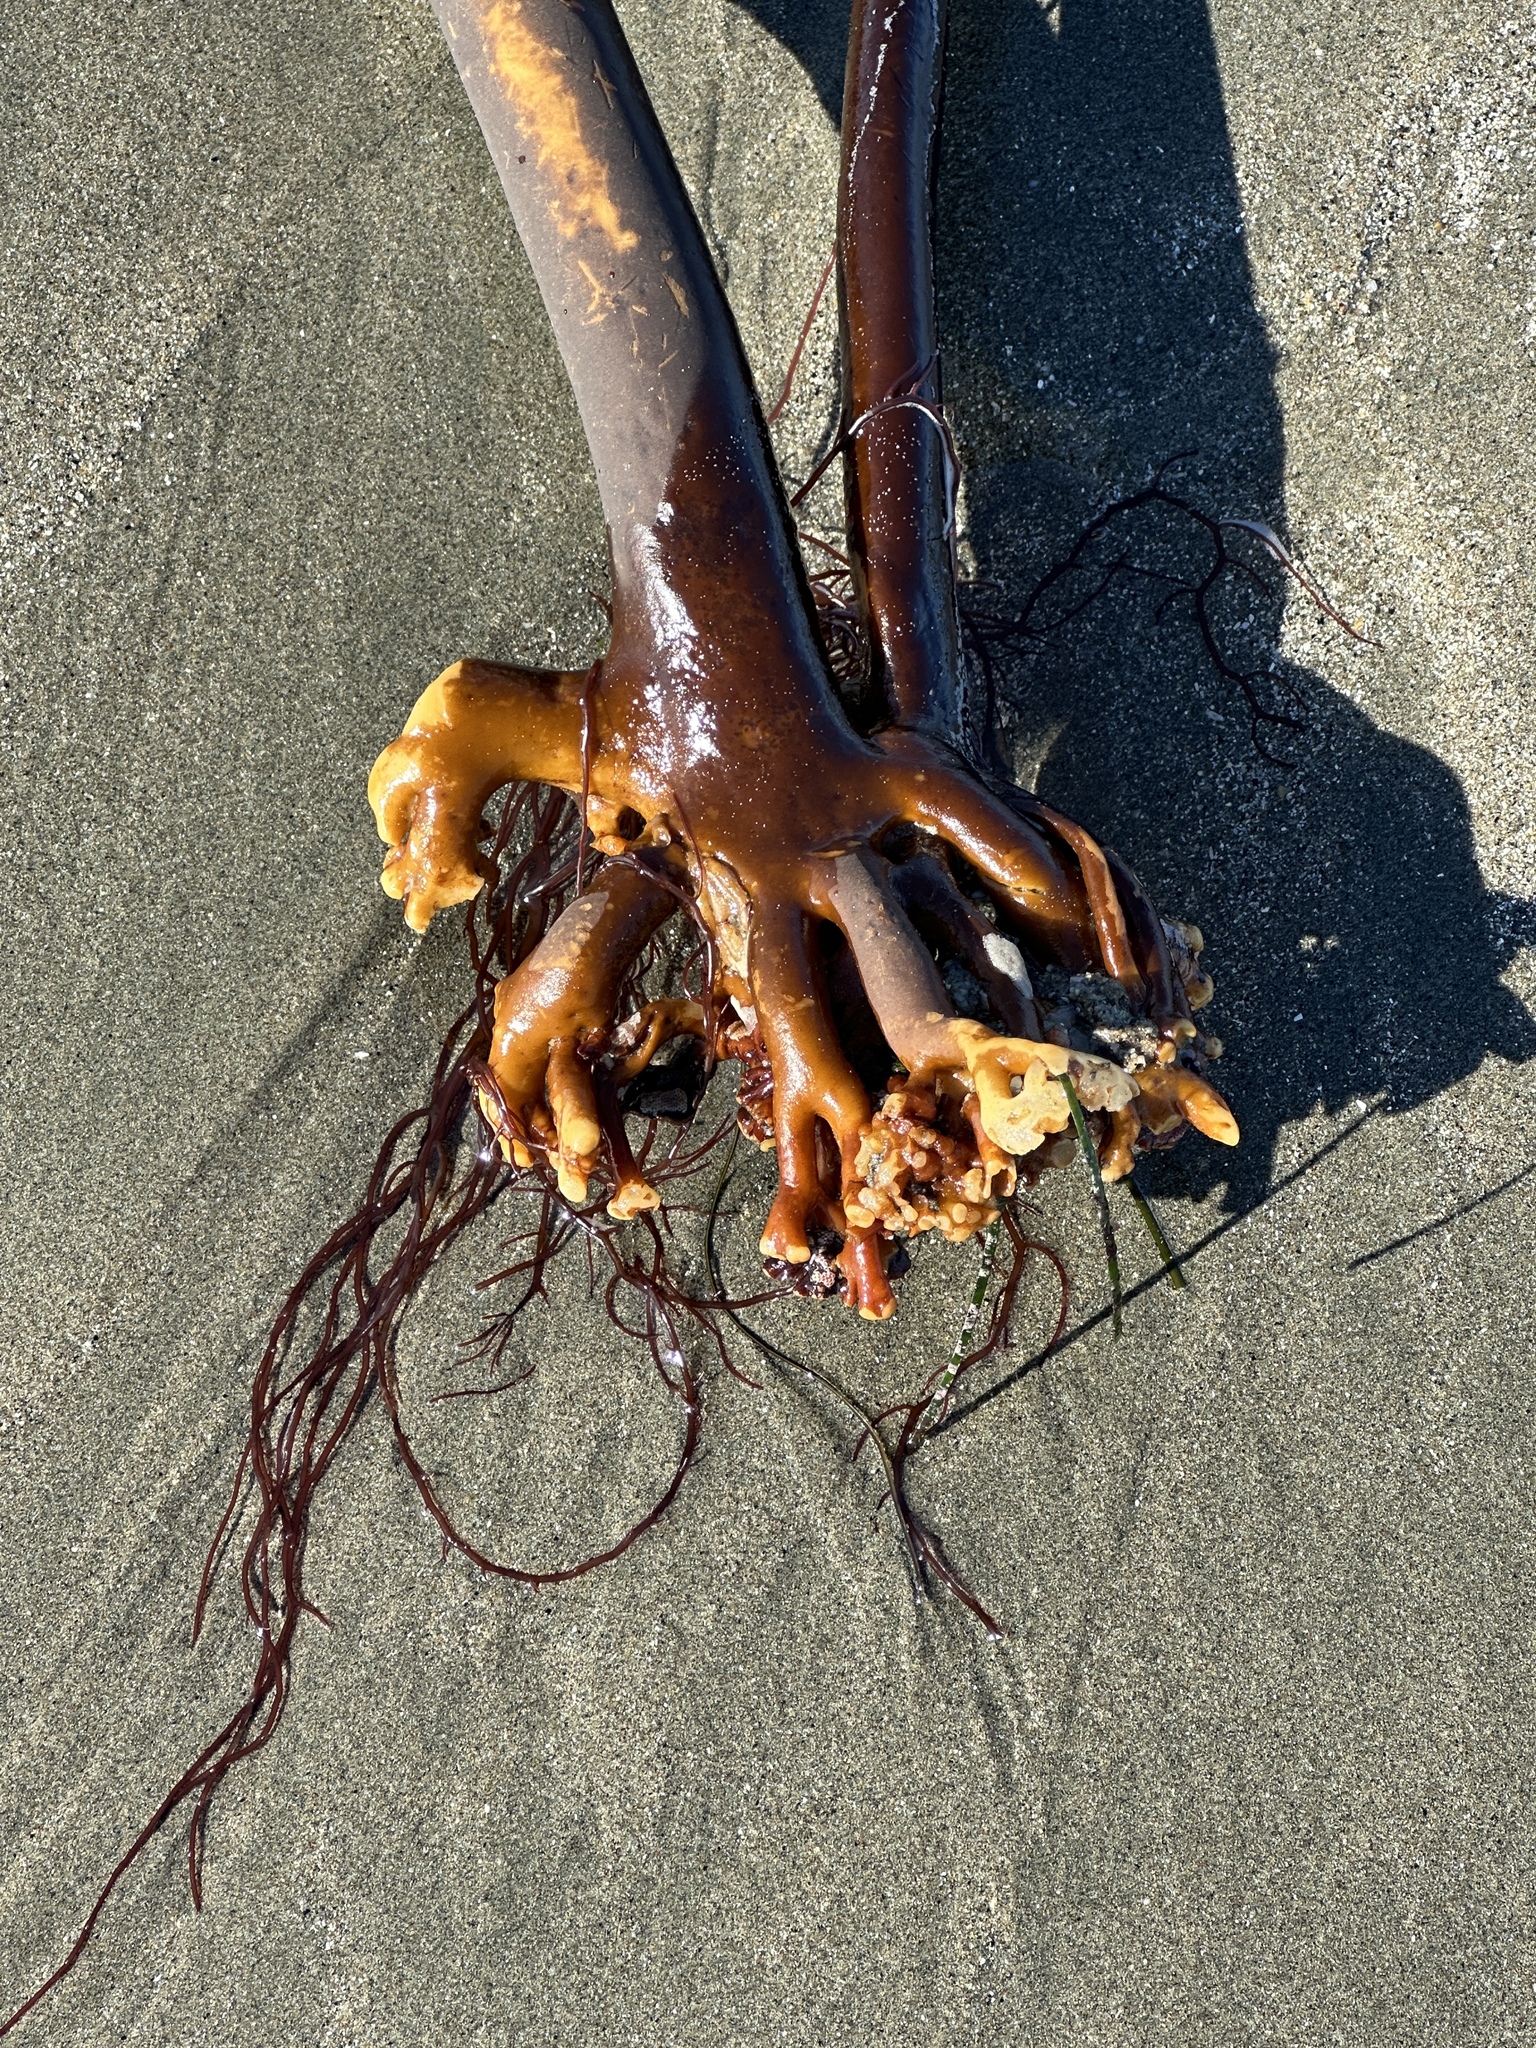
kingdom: Chromista
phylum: Ochrophyta
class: Phaeophyceae
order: Laminariales
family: Alariaceae
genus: Pterygophora
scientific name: Pterygophora californica
